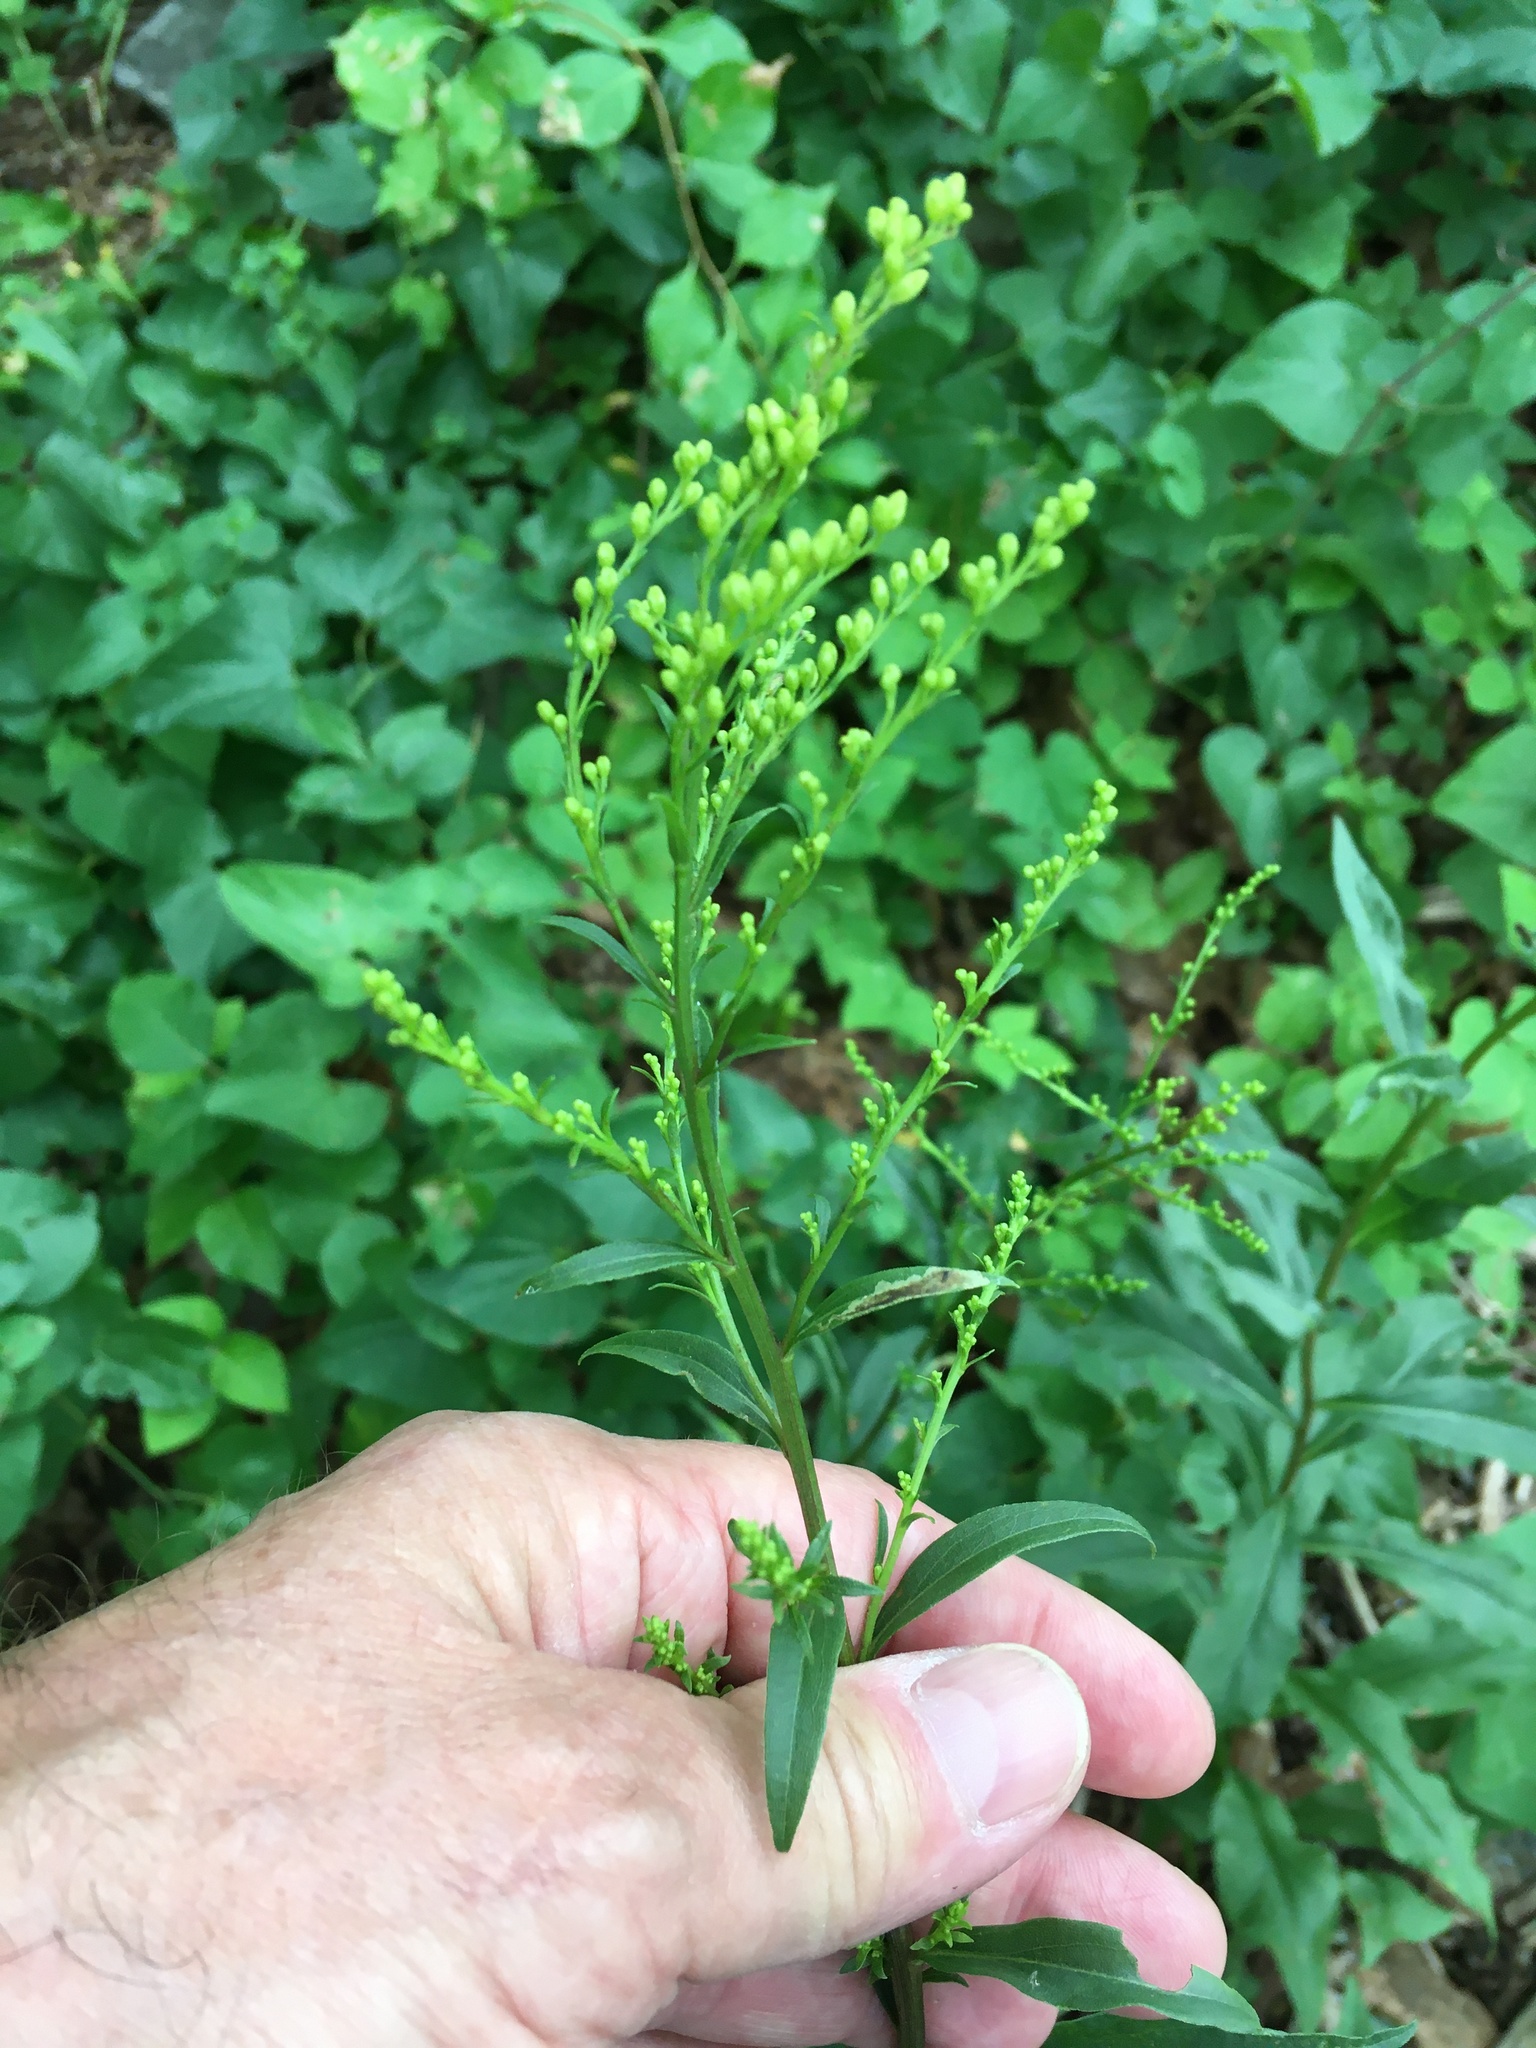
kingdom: Plantae
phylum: Tracheophyta
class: Magnoliopsida
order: Asterales
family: Asteraceae
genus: Solidago
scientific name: Solidago juncea
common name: Early goldenrod
